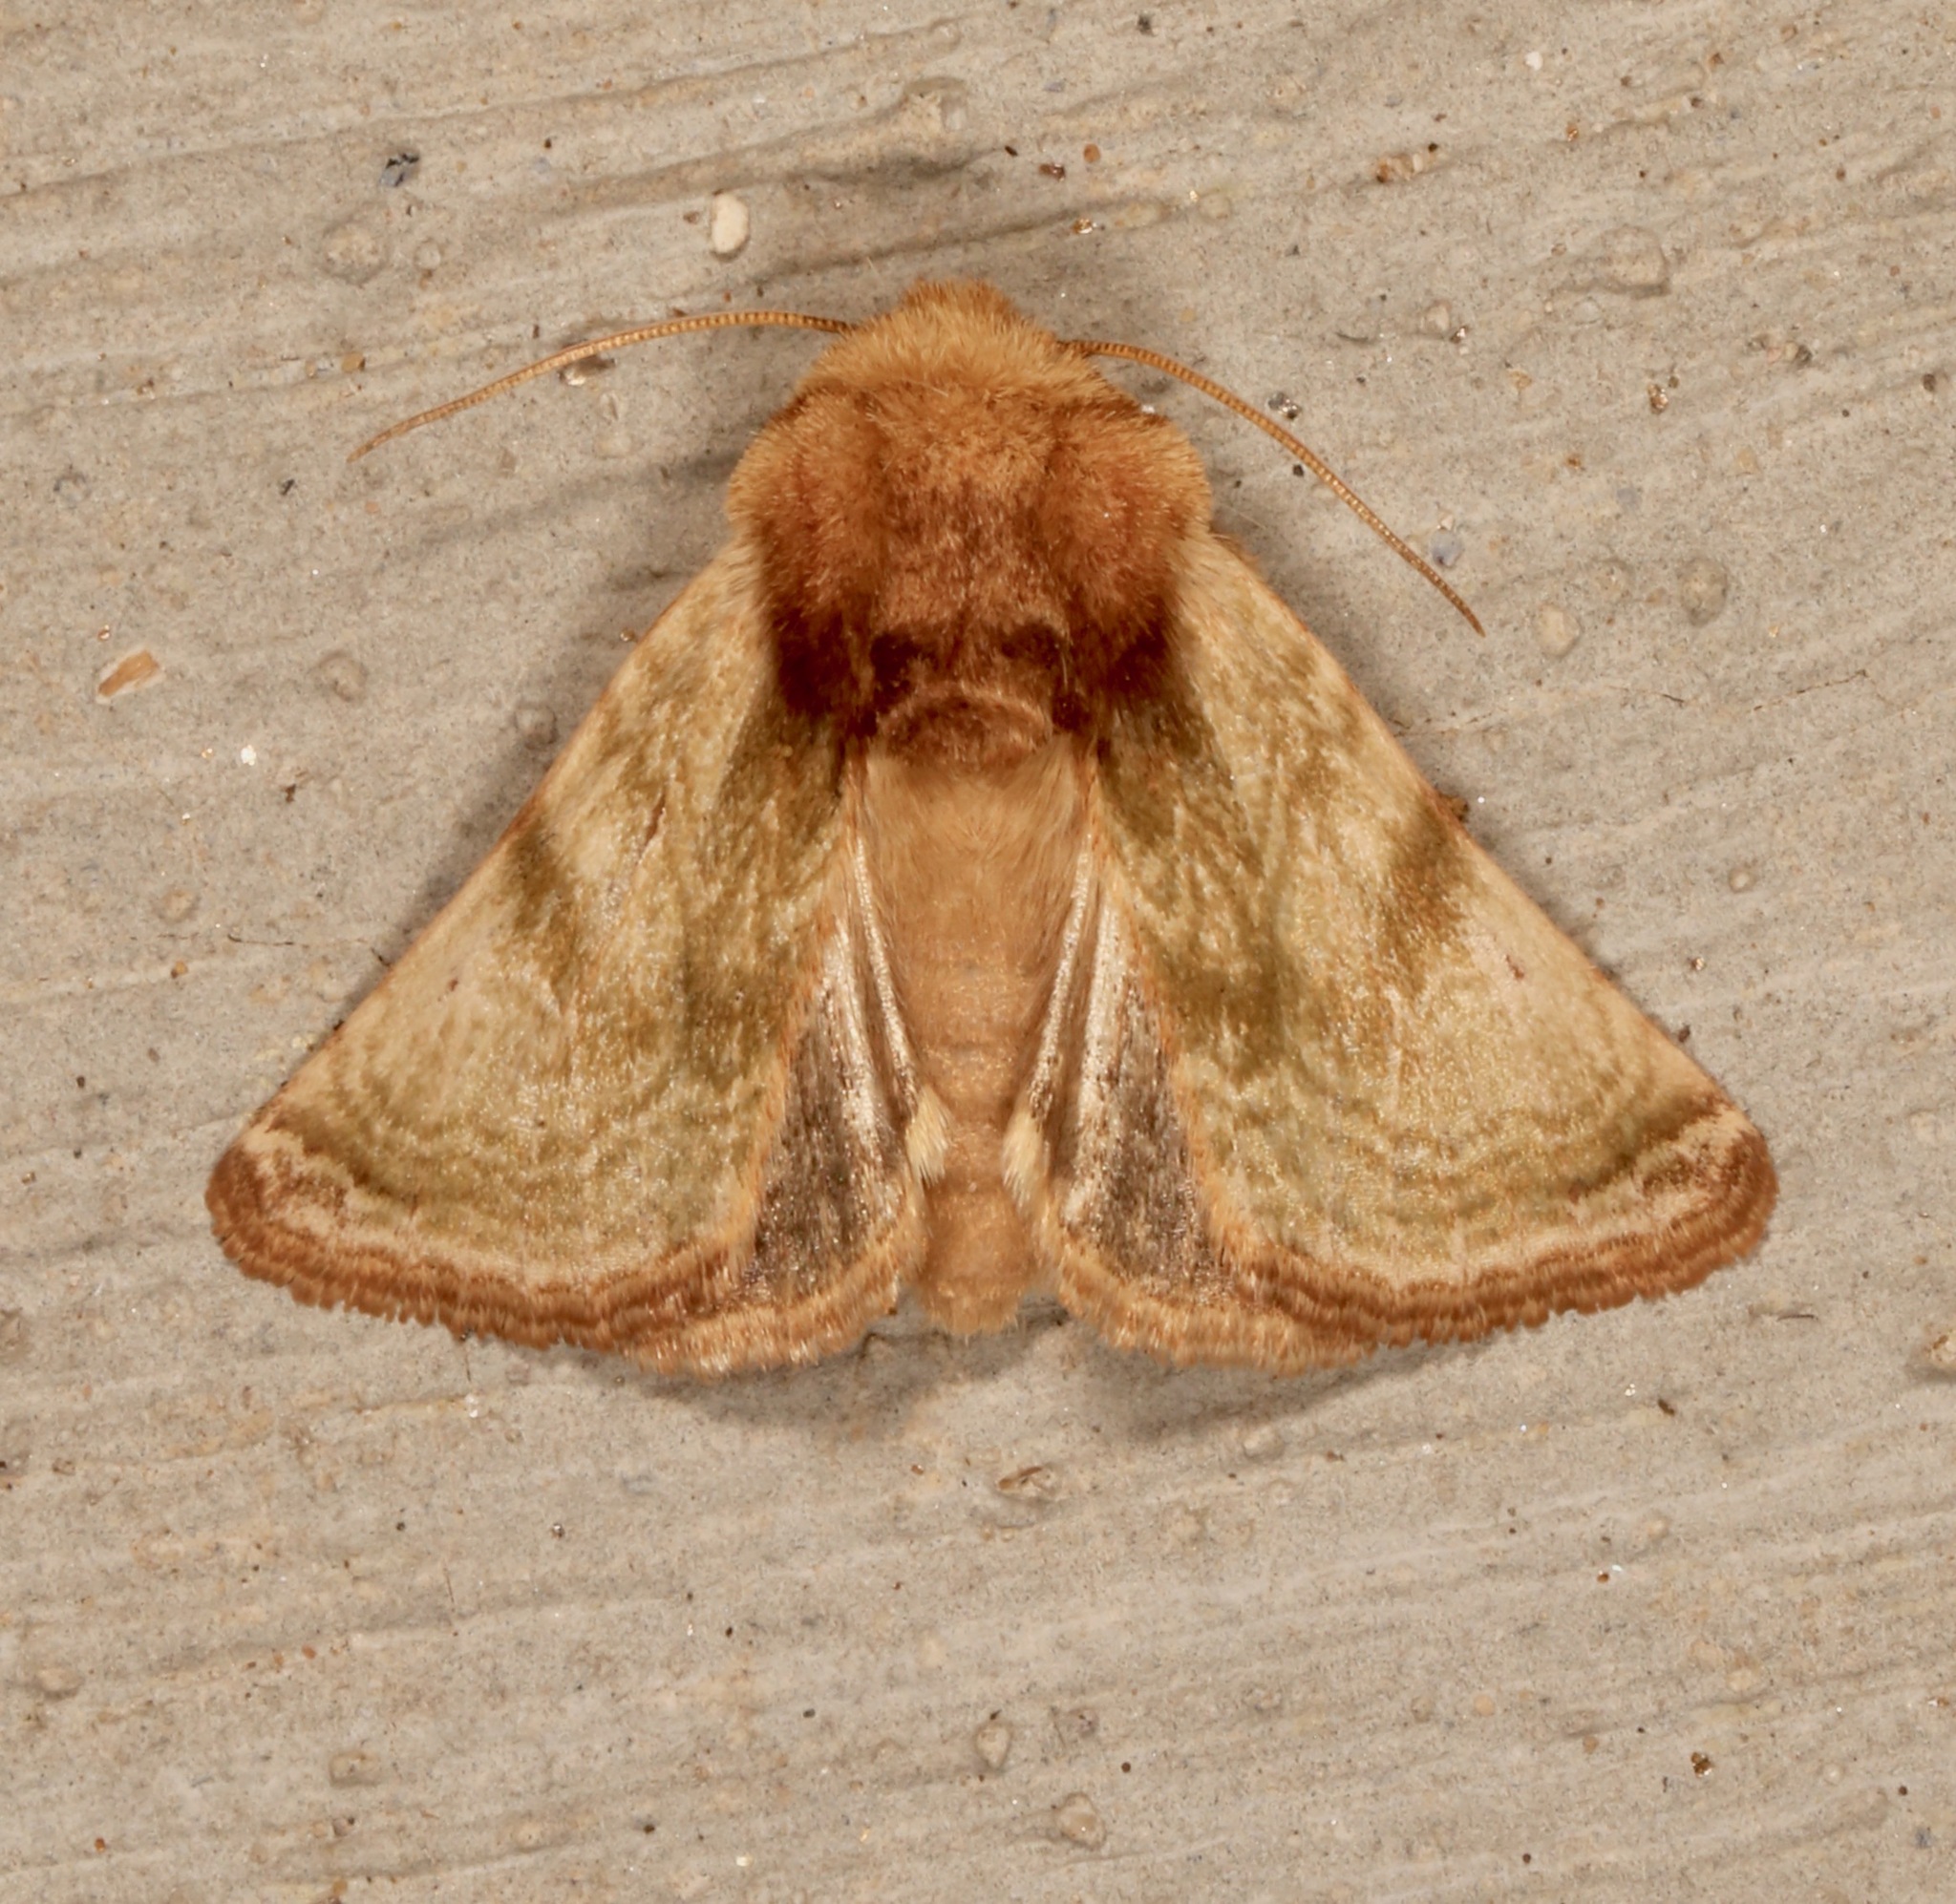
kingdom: Animalia
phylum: Arthropoda
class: Insecta
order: Lepidoptera
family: Noctuidae
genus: Nocloa
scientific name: Nocloa rivulosa
